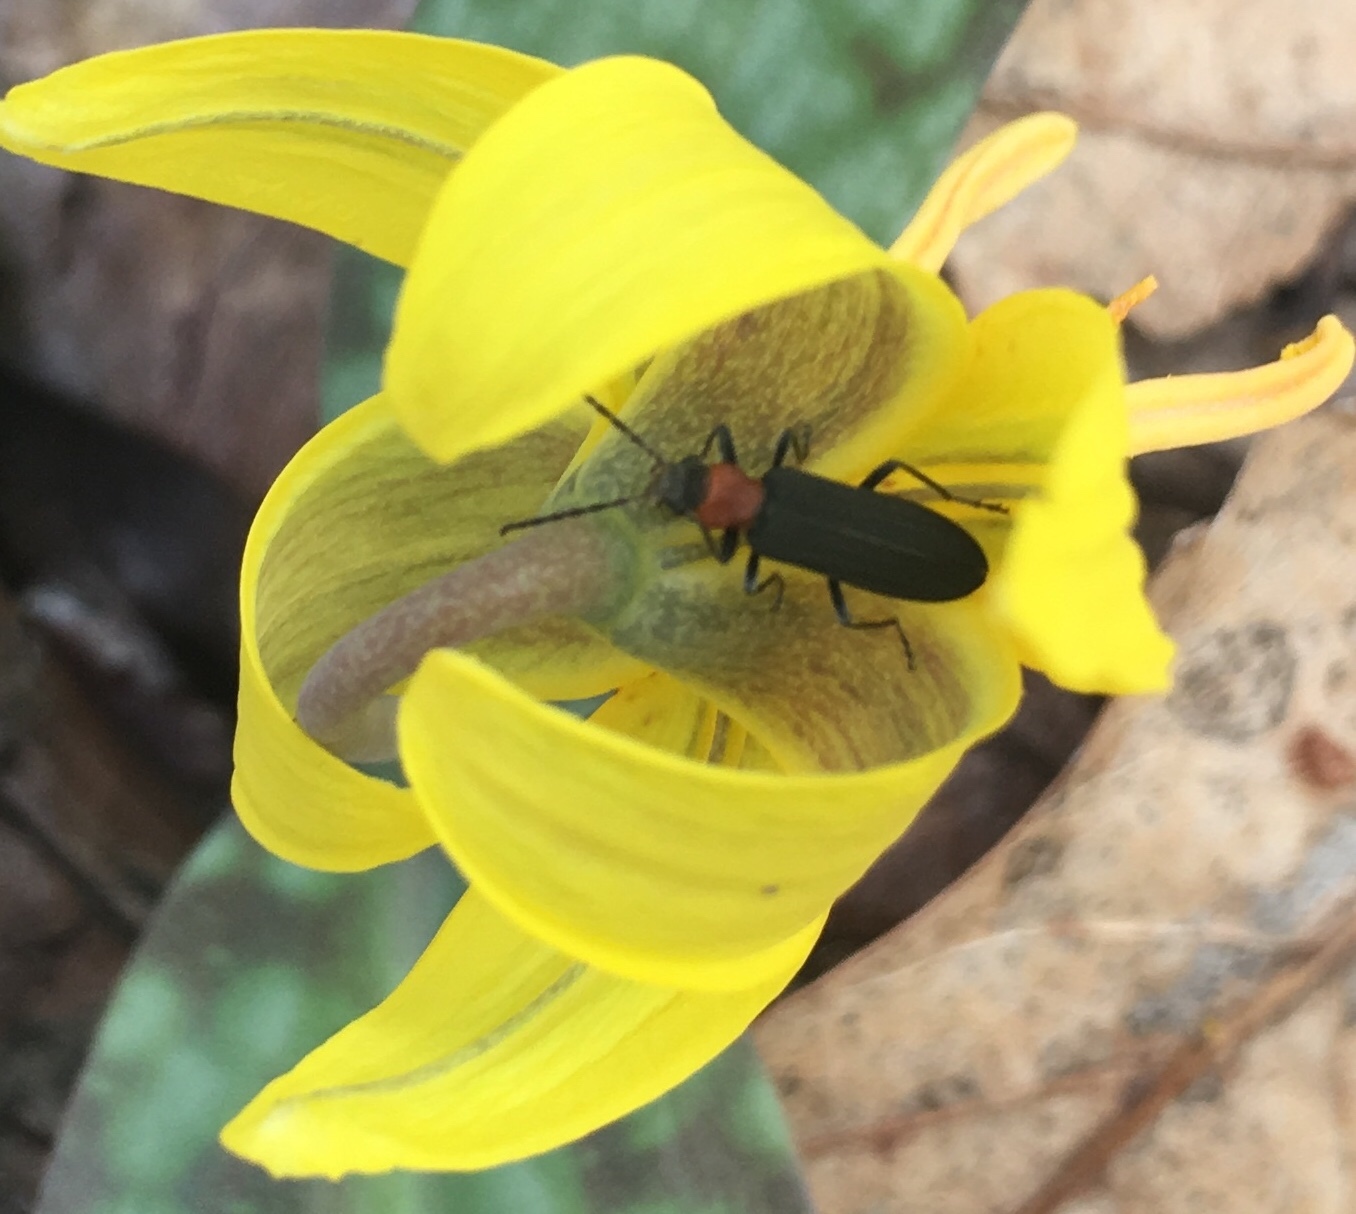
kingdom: Animalia
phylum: Arthropoda
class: Insecta
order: Coleoptera
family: Oedemeridae
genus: Ischnomera
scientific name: Ischnomera
